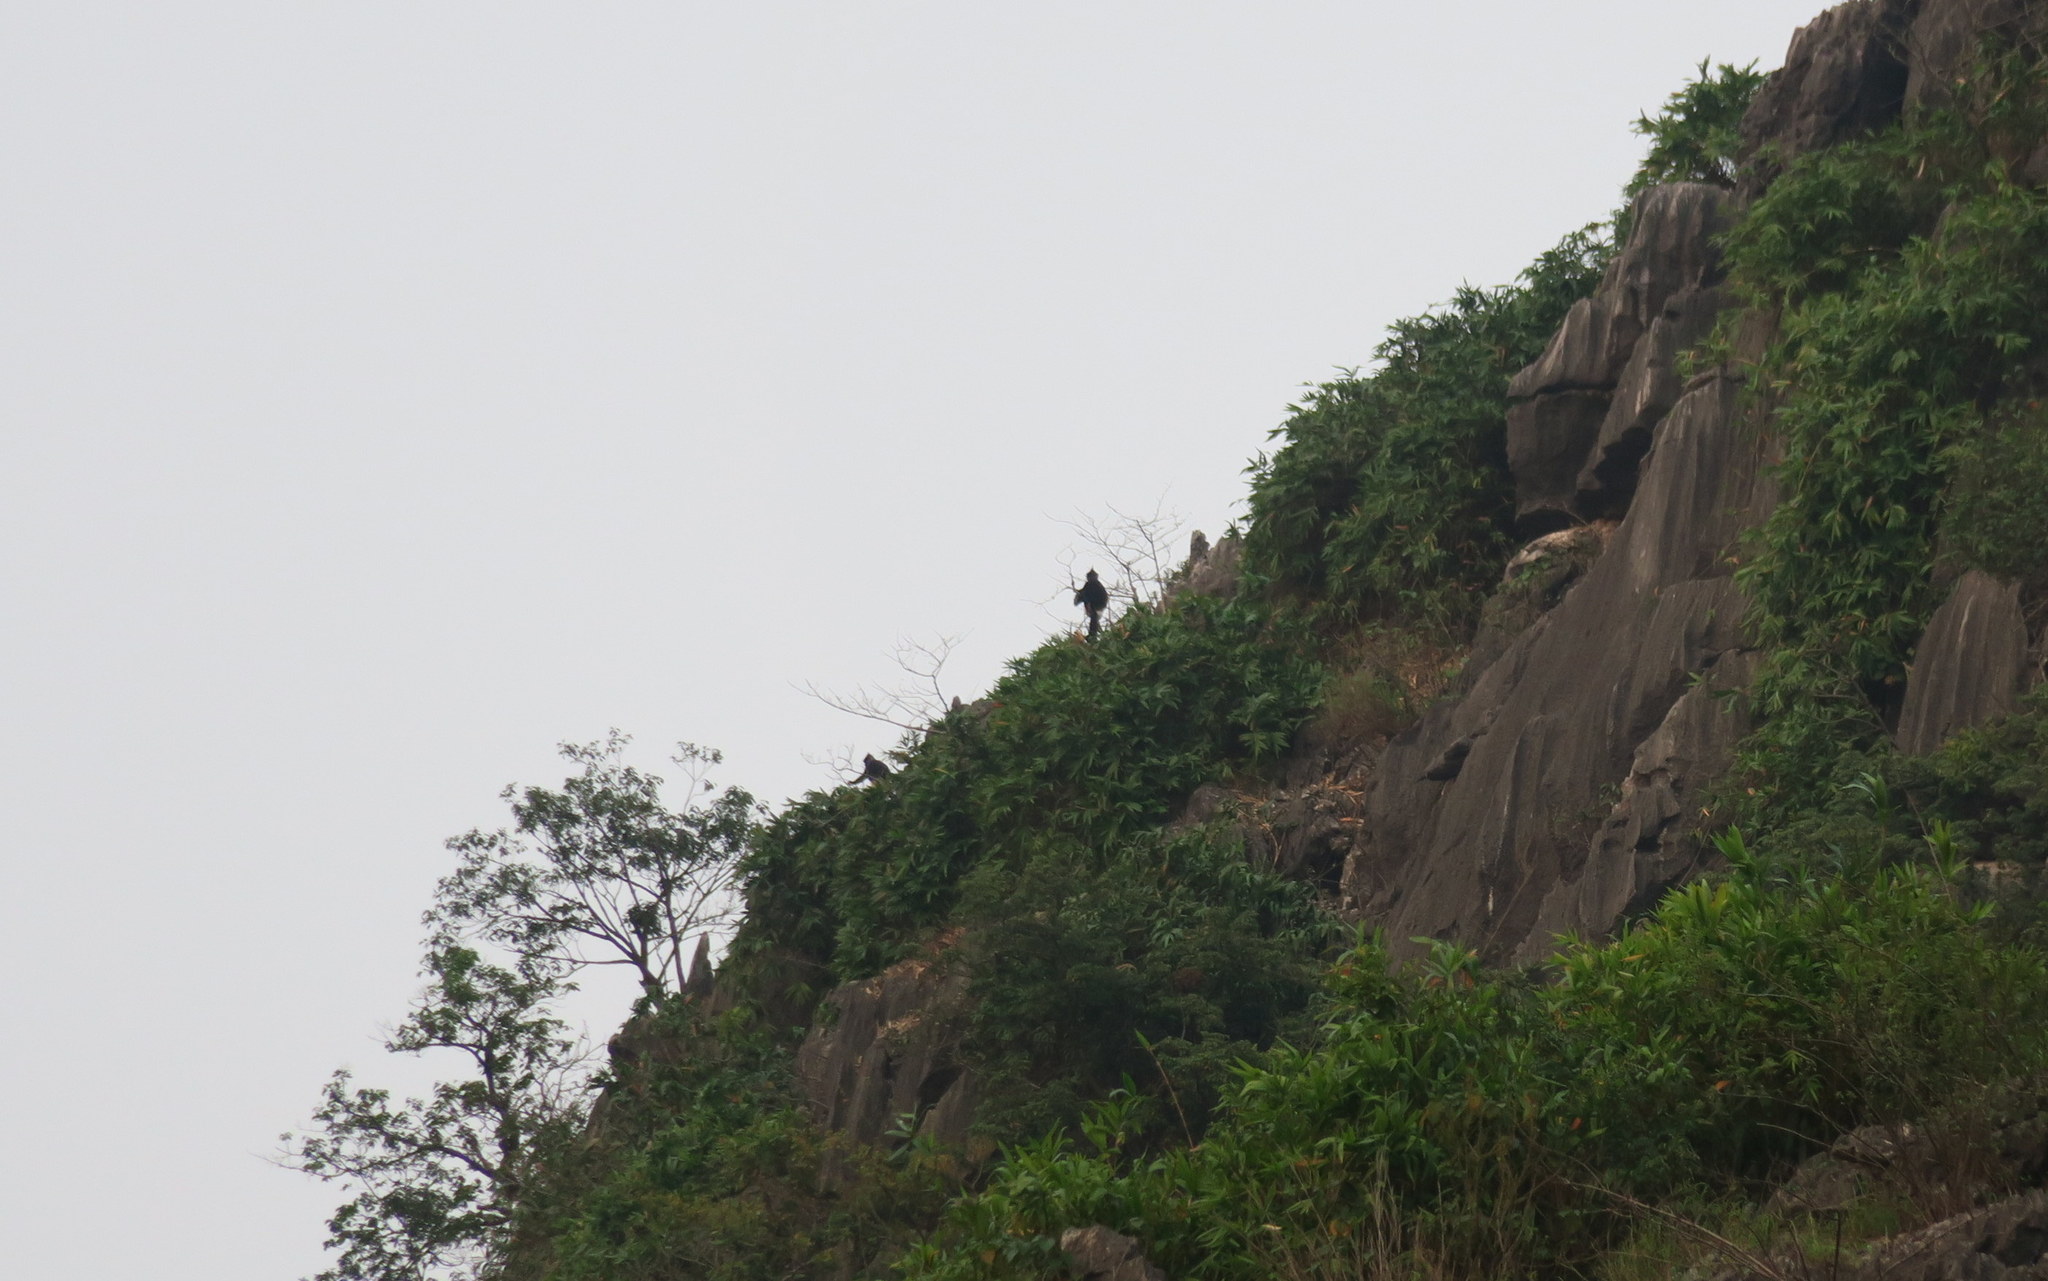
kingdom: Animalia
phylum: Chordata
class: Mammalia
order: Primates
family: Cercopithecidae
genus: Trachypithecus
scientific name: Trachypithecus delacouri
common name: Delacour's langur
